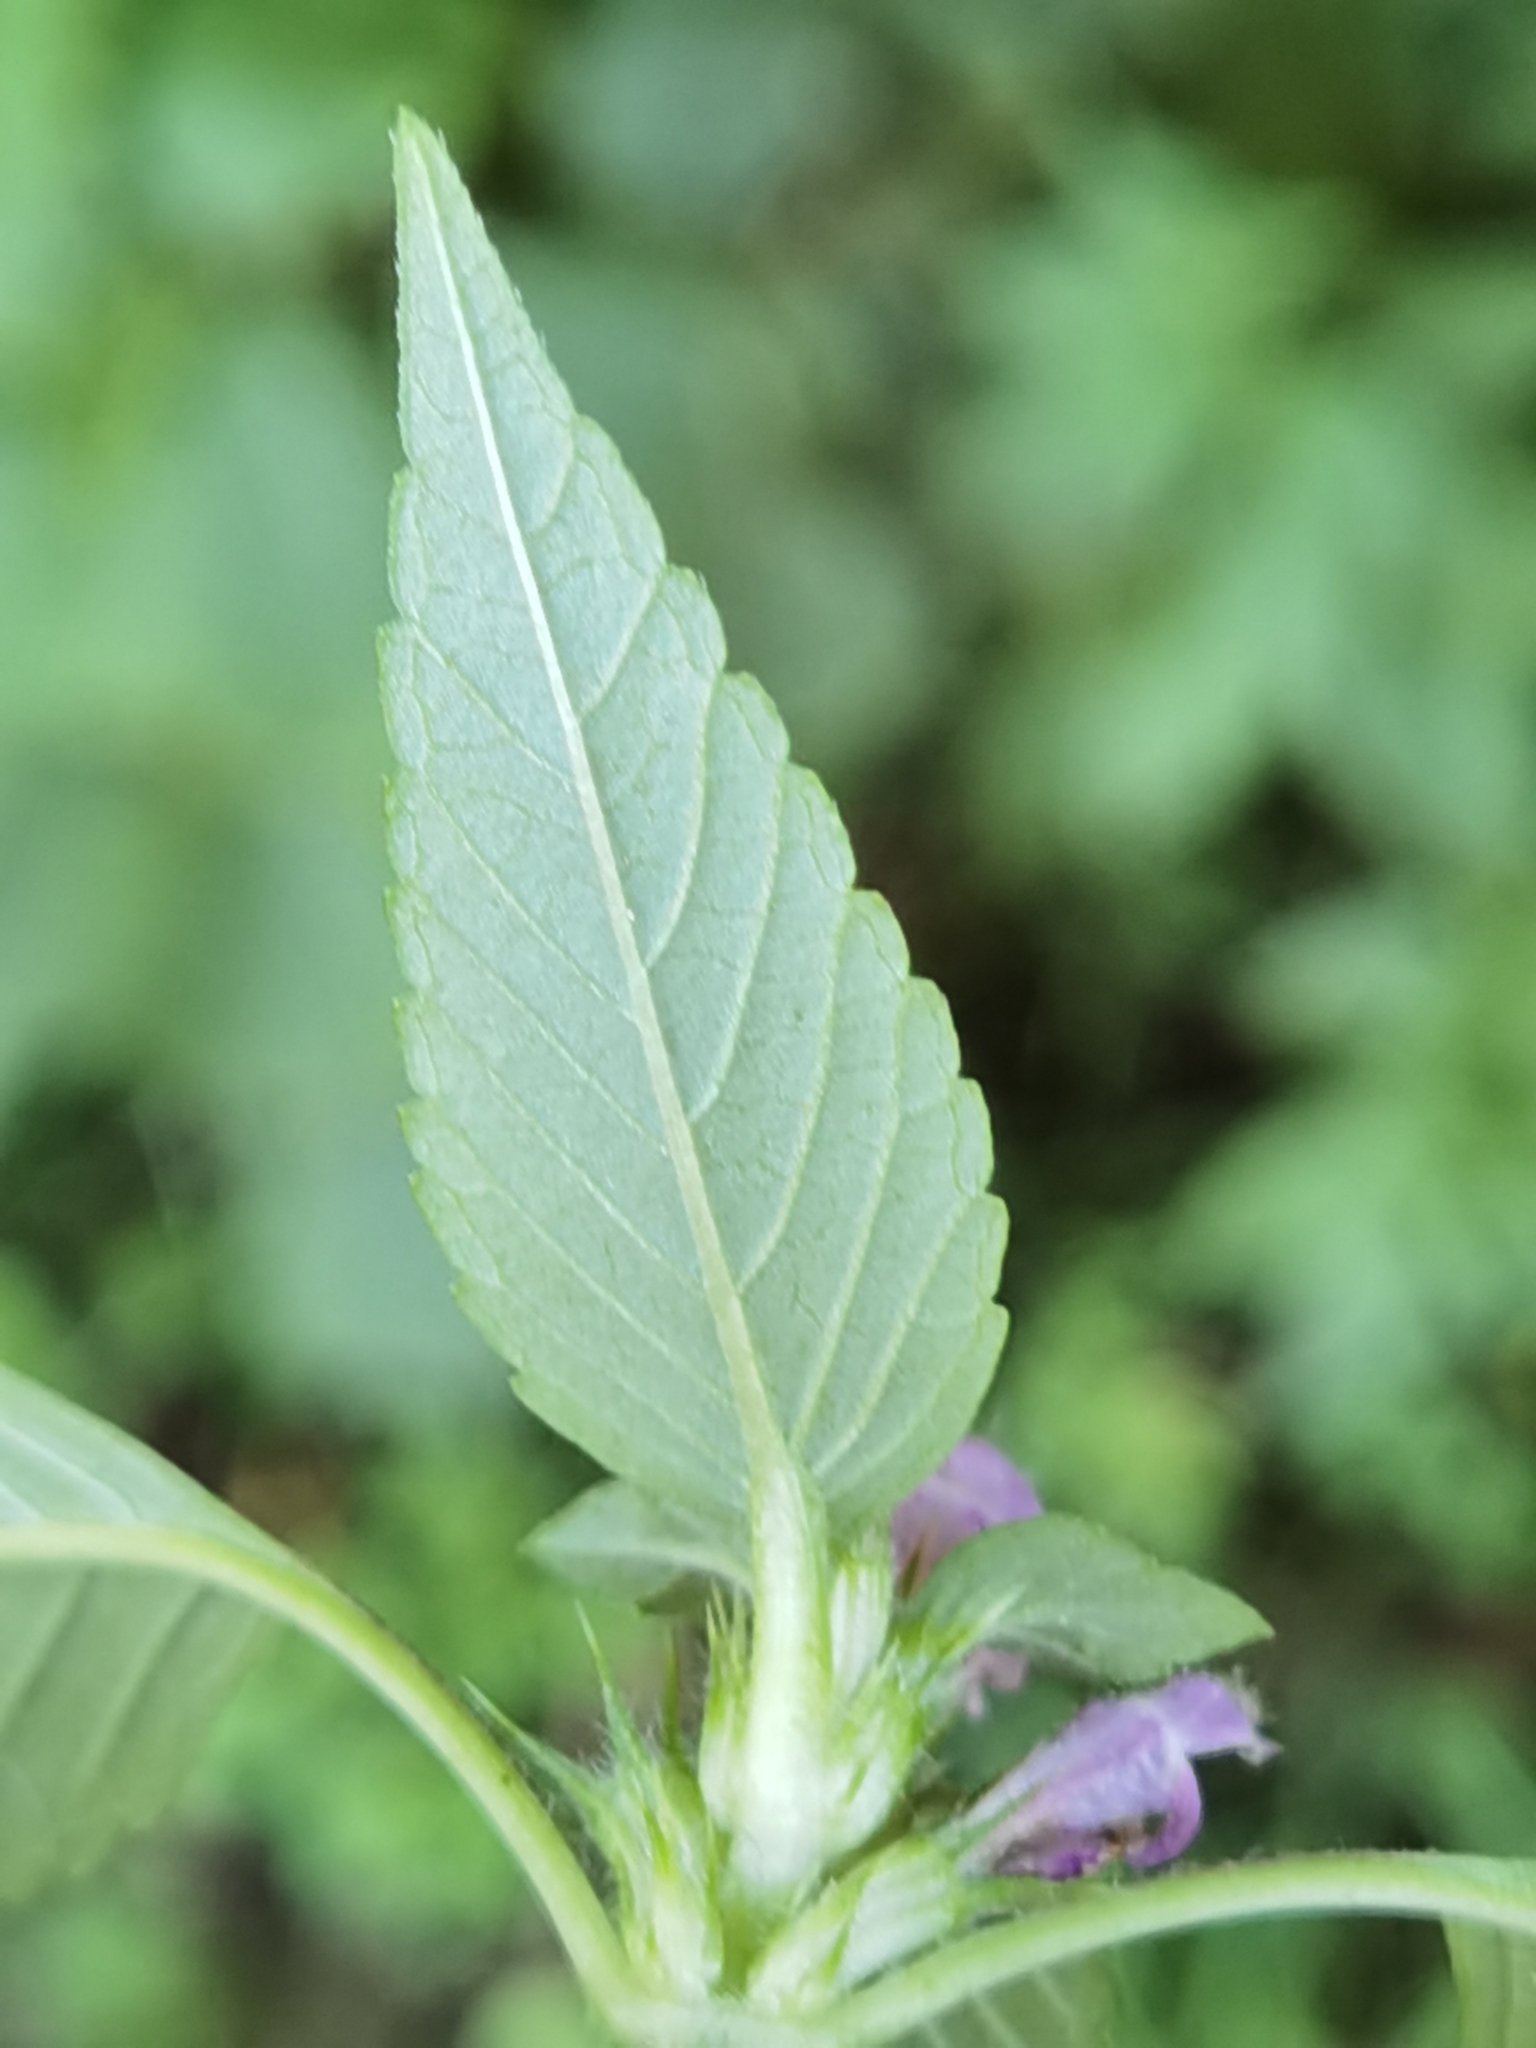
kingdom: Plantae
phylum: Tracheophyta
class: Magnoliopsida
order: Lamiales
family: Lamiaceae
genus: Galeopsis
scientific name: Galeopsis tetrahit
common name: Common hemp-nettle
